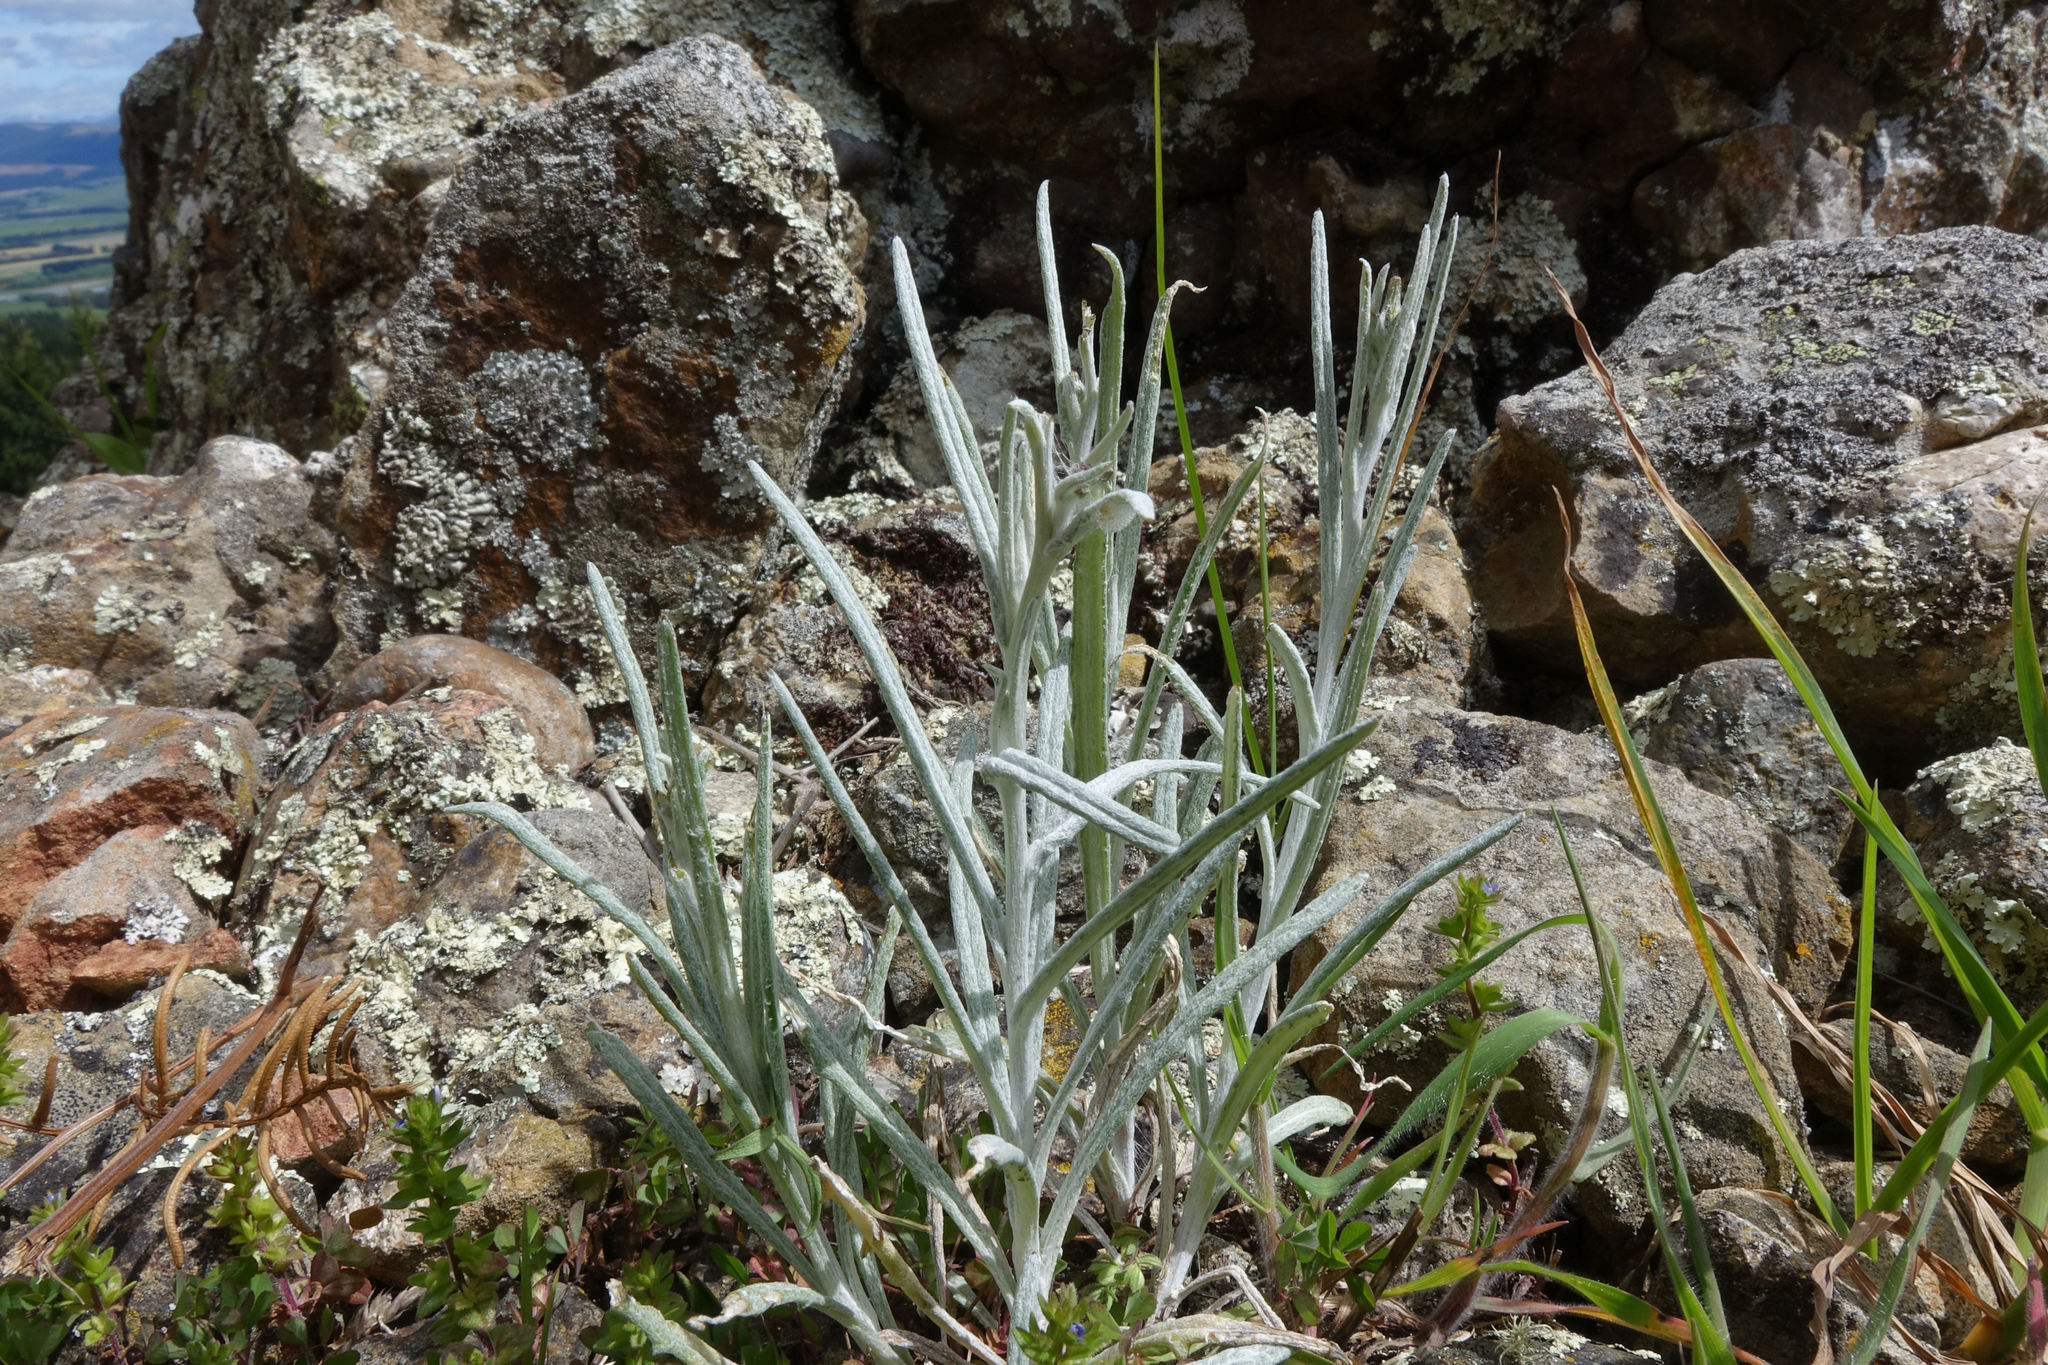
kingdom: Plantae
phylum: Tracheophyta
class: Magnoliopsida
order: Asterales
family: Asteraceae
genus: Senecio
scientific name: Senecio quadridentatus
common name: Cotton fireweed
